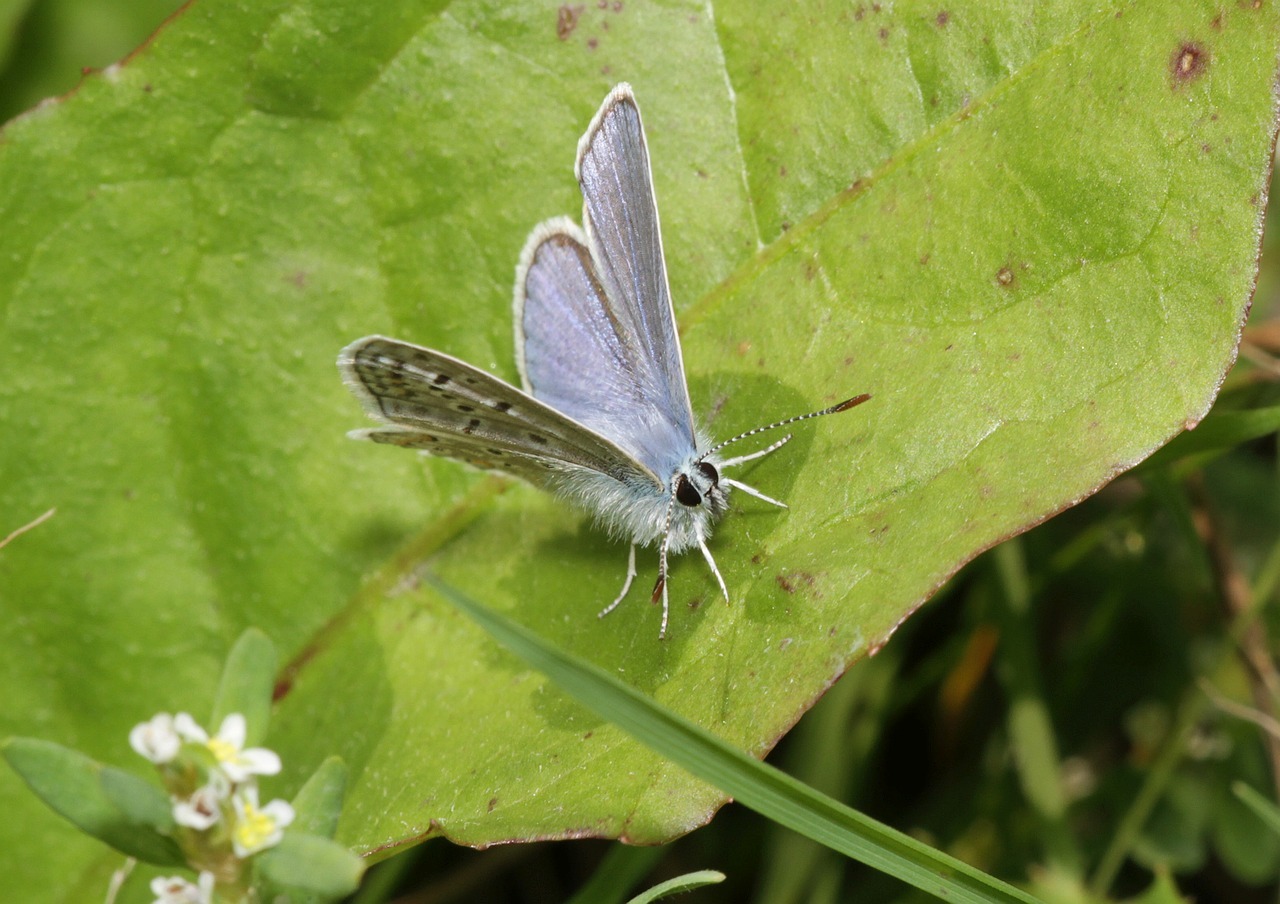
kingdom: Animalia
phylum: Arthropoda
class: Insecta
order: Lepidoptera
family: Lycaenidae
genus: Polyommatus
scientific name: Polyommatus icarus
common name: Common blue
